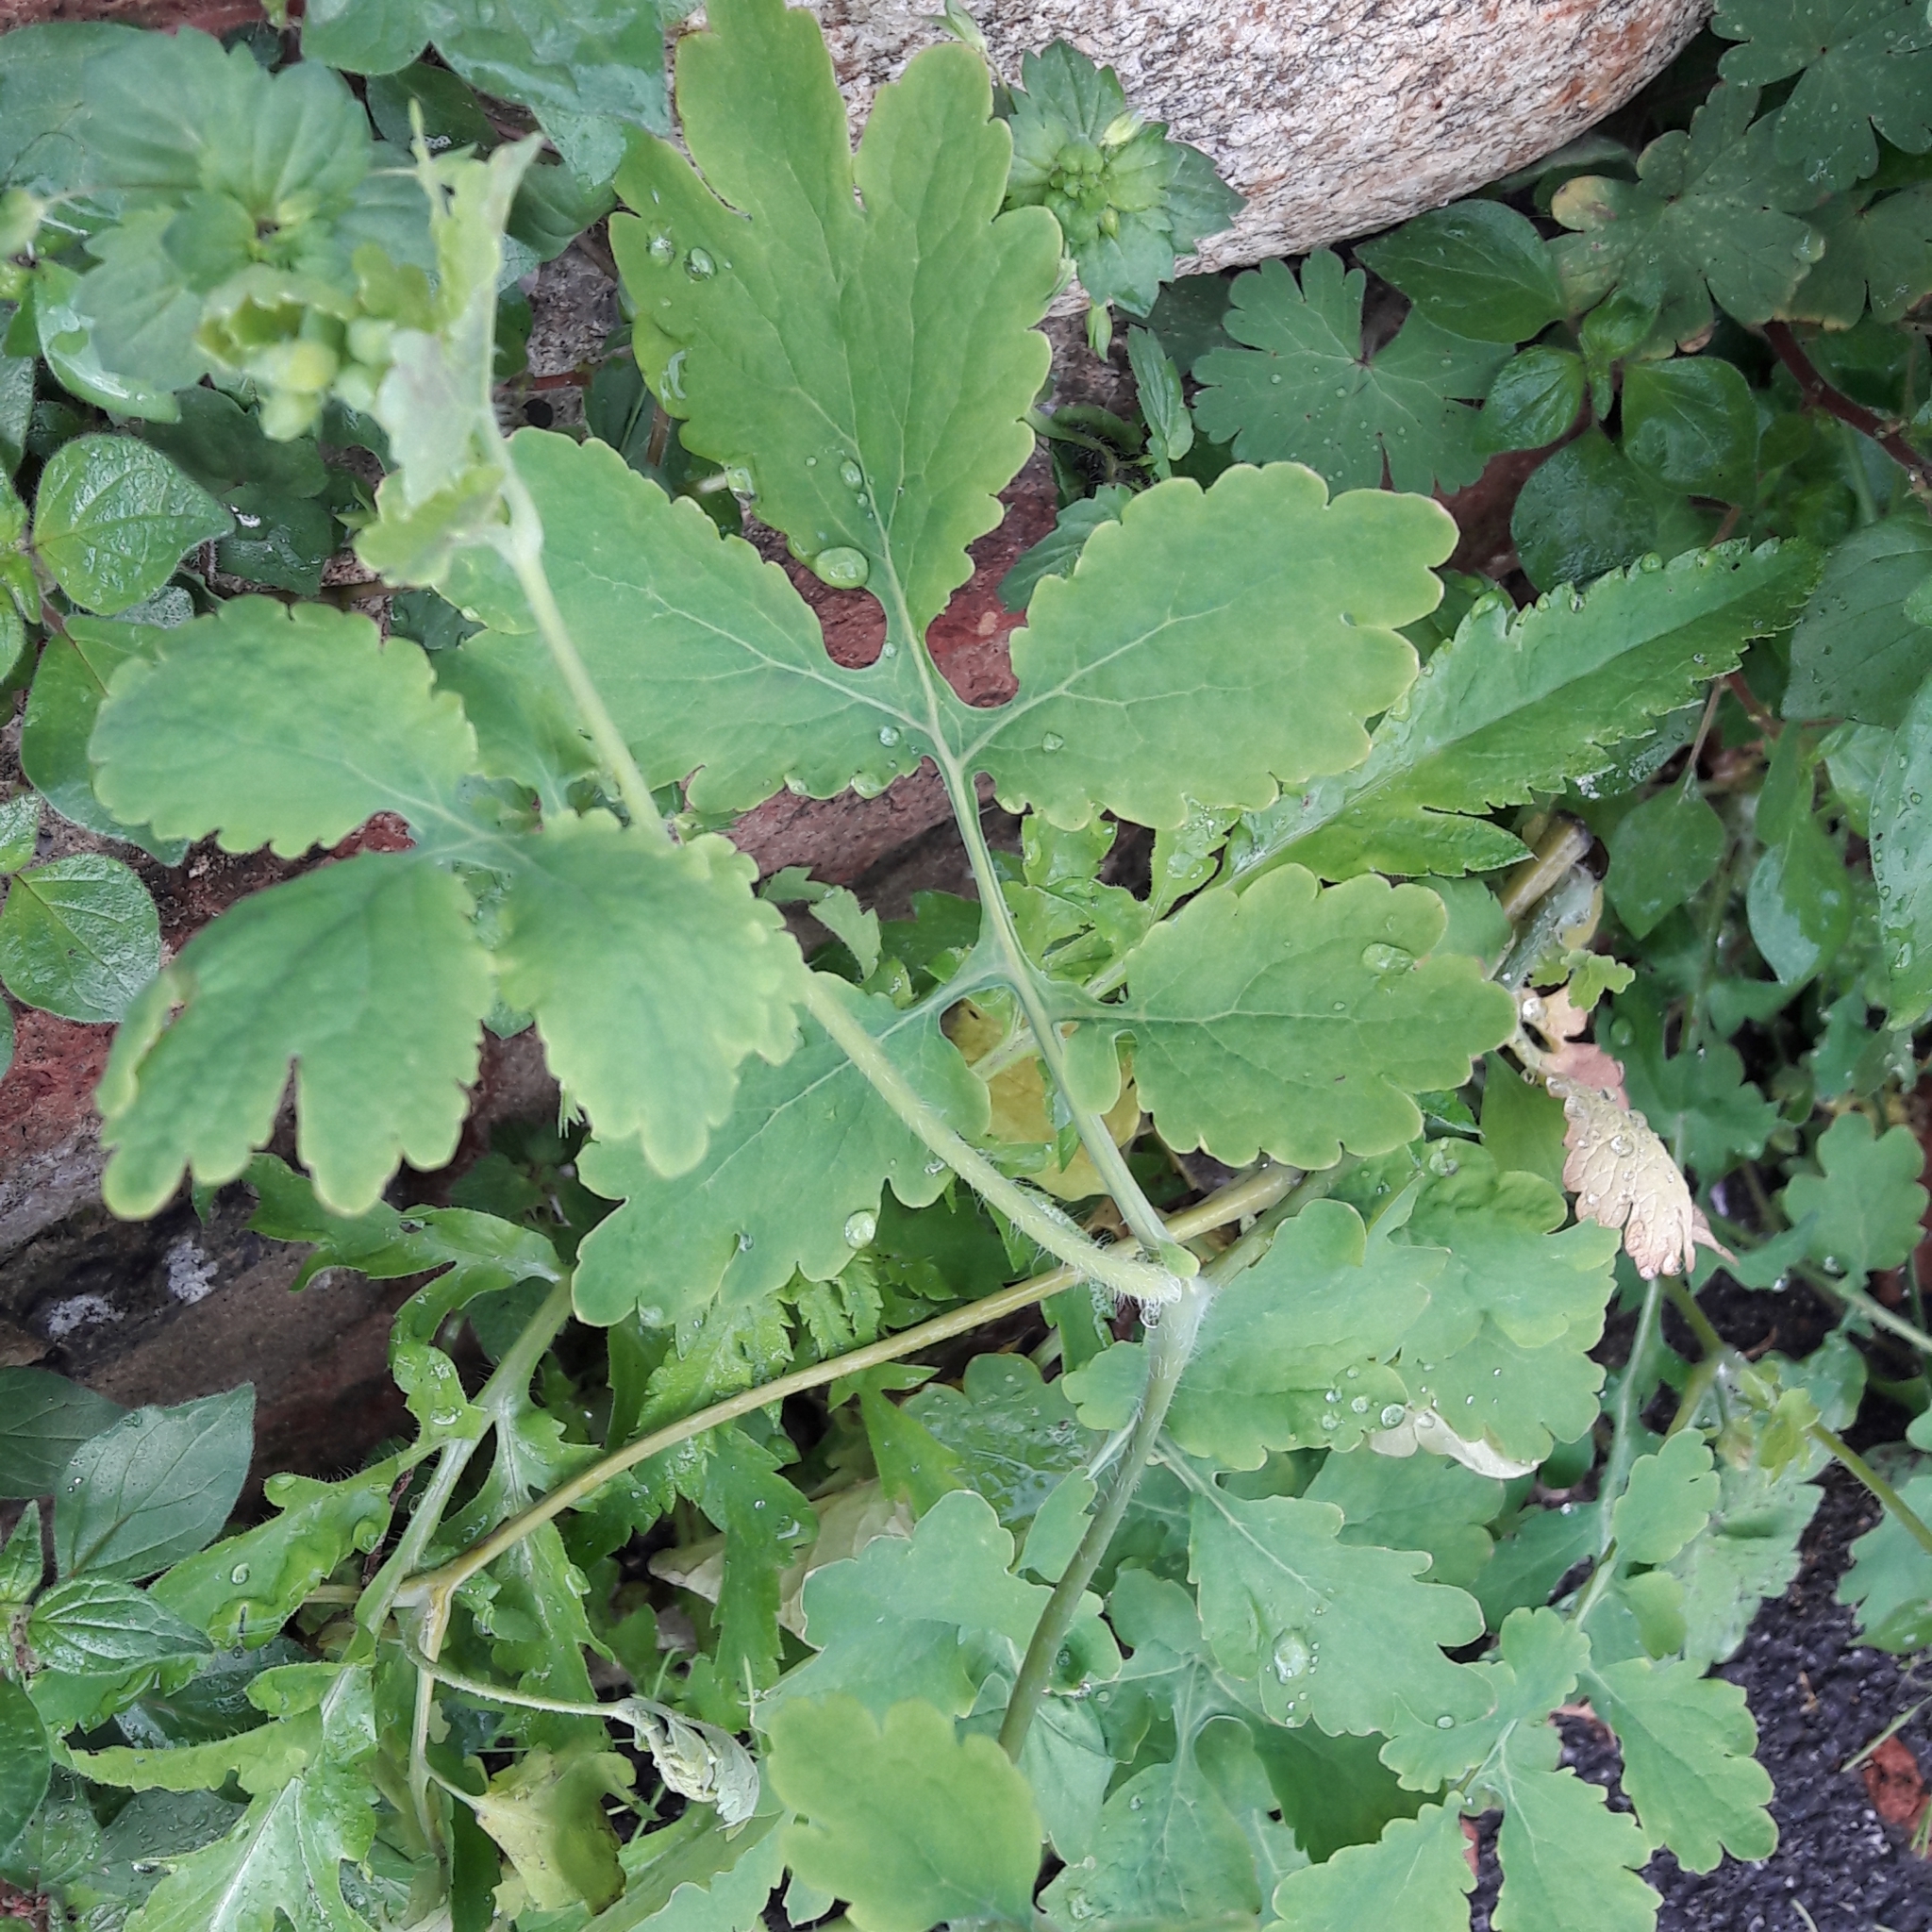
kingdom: Plantae
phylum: Tracheophyta
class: Magnoliopsida
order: Ranunculales
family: Papaveraceae
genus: Chelidonium
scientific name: Chelidonium majus
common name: Greater celandine
